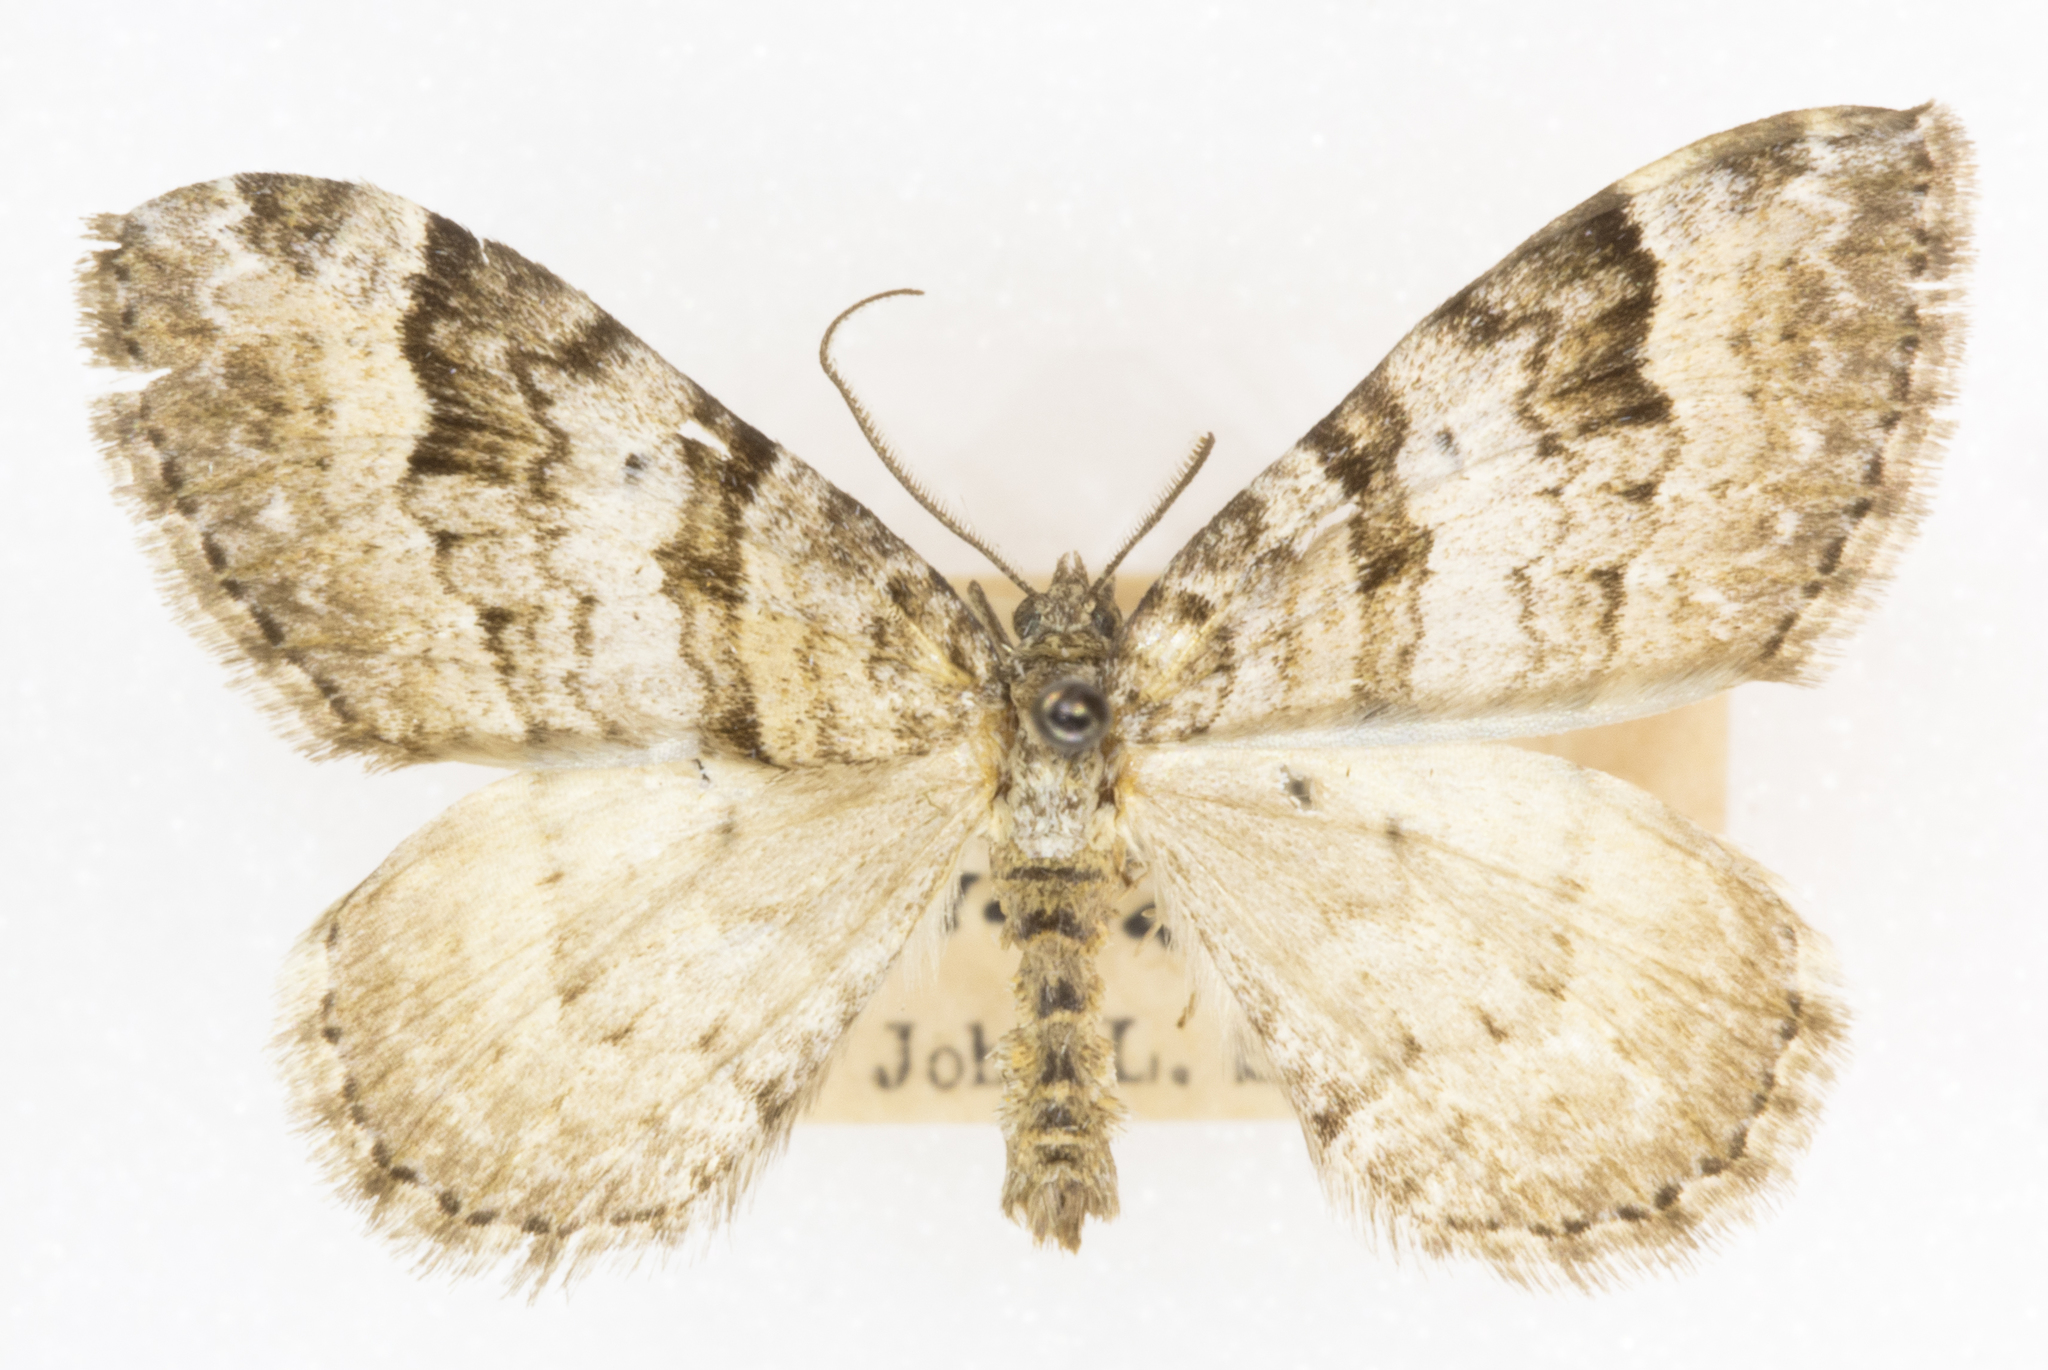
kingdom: Animalia
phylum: Arthropoda
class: Insecta
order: Lepidoptera
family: Geometridae
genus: Xanthorhoe
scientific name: Xanthorhoe abrasaria
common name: Northern carpet
